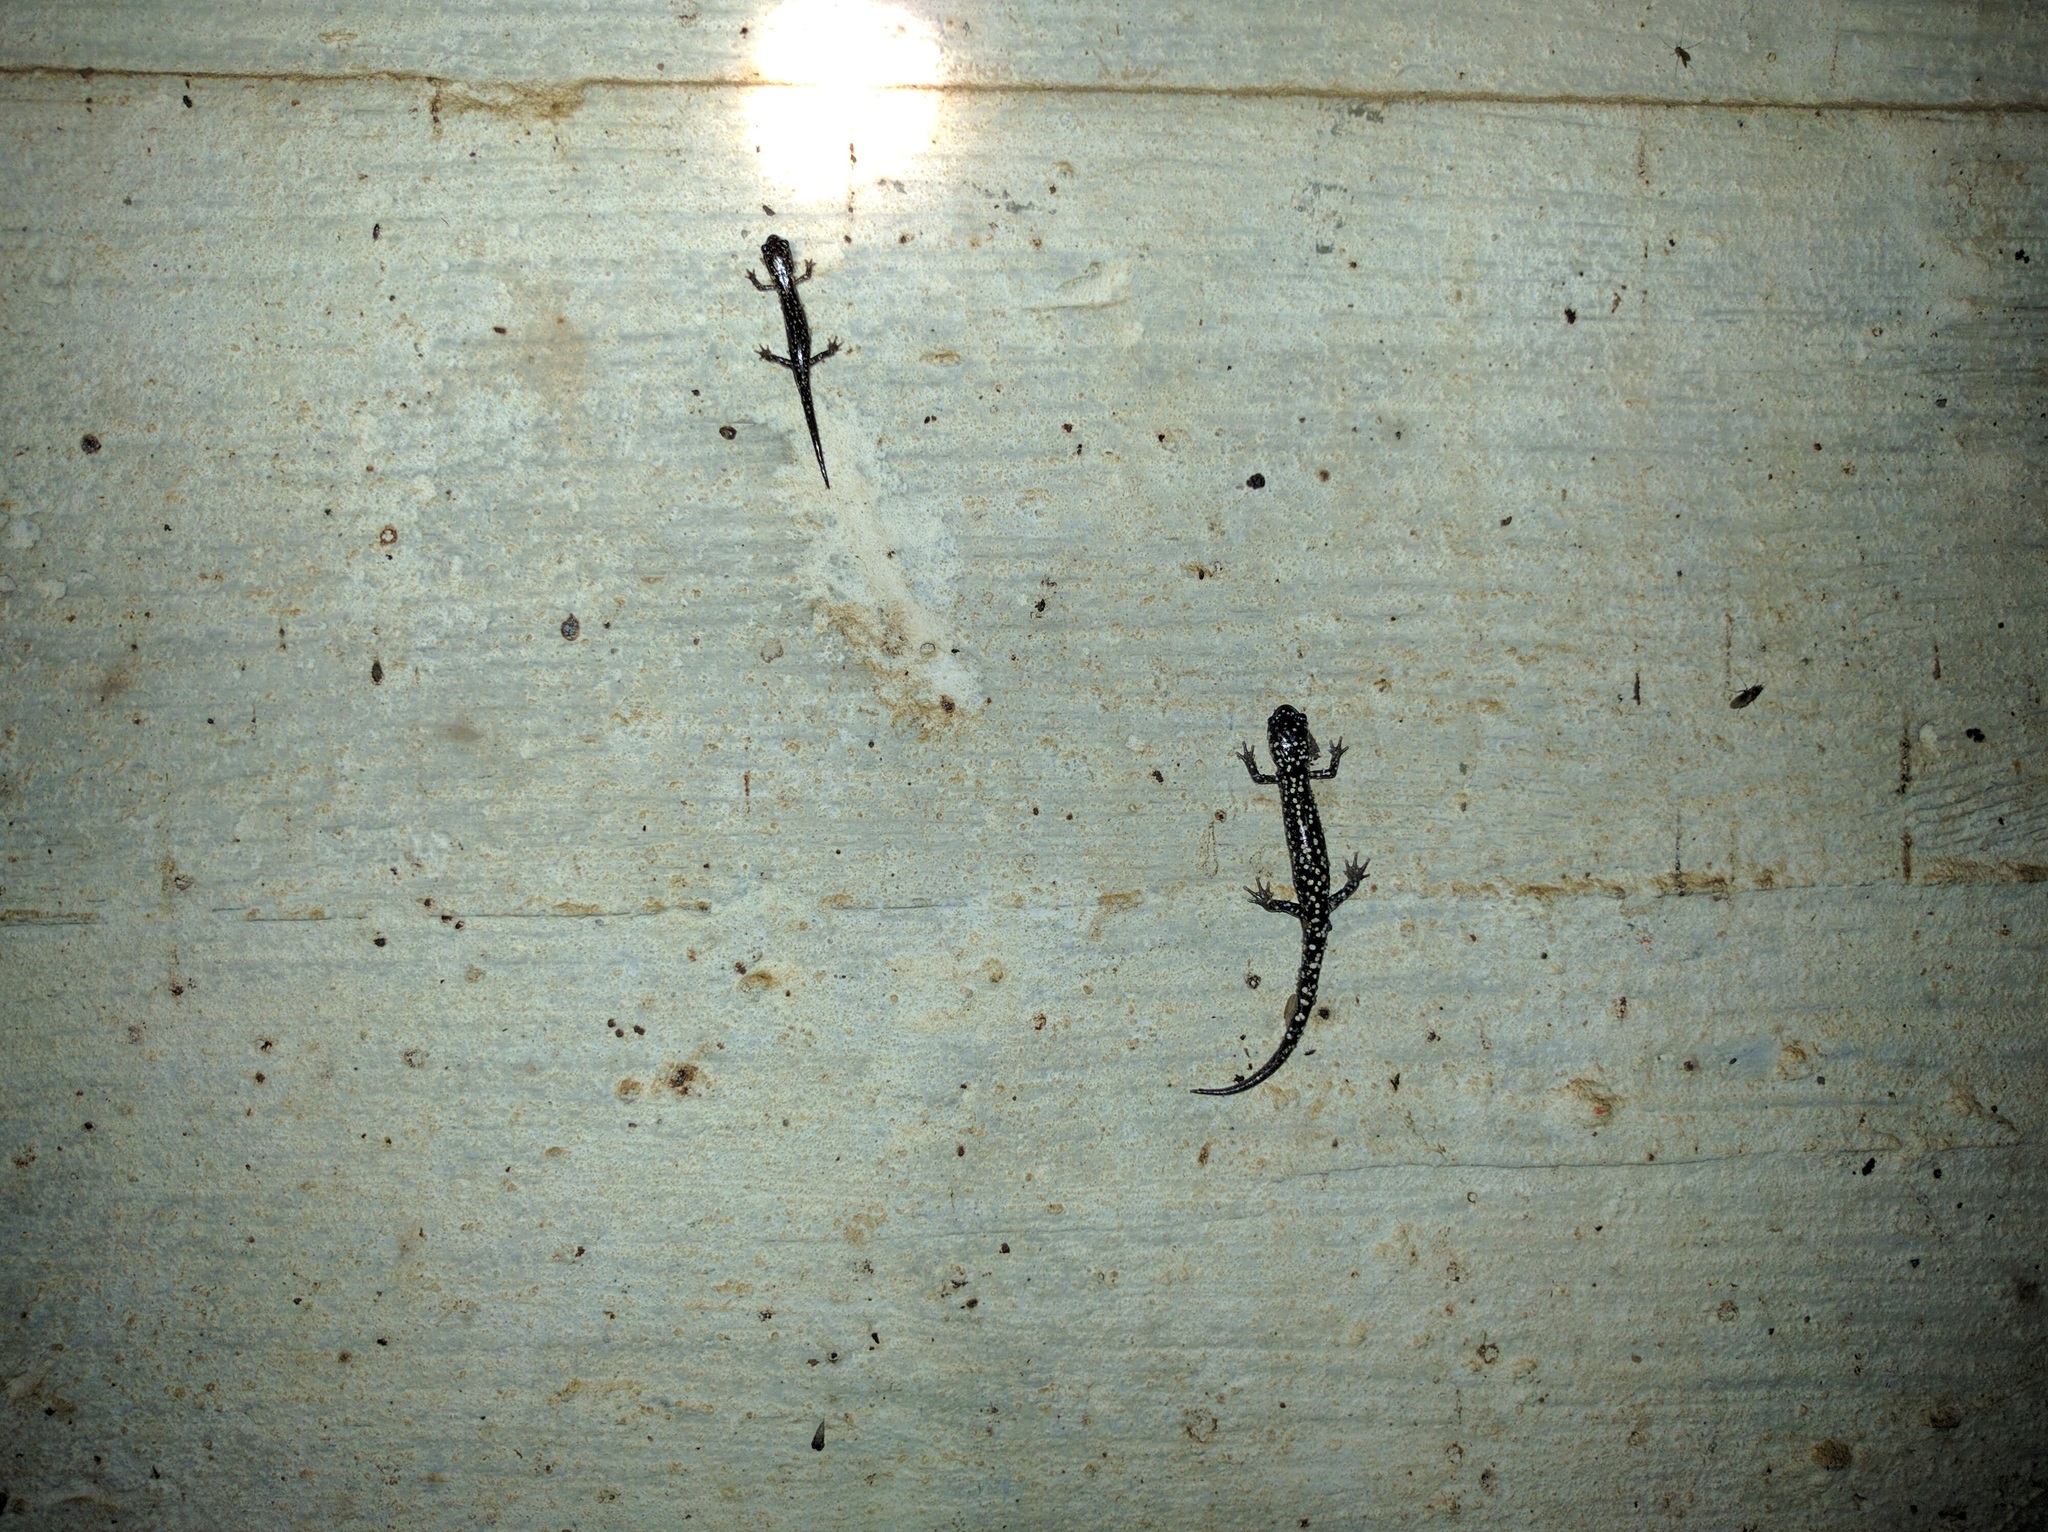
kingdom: Animalia
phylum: Chordata
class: Amphibia
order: Caudata
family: Plethodontidae
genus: Plethodon
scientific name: Plethodon glutinosus
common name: Northern slimy salamander
